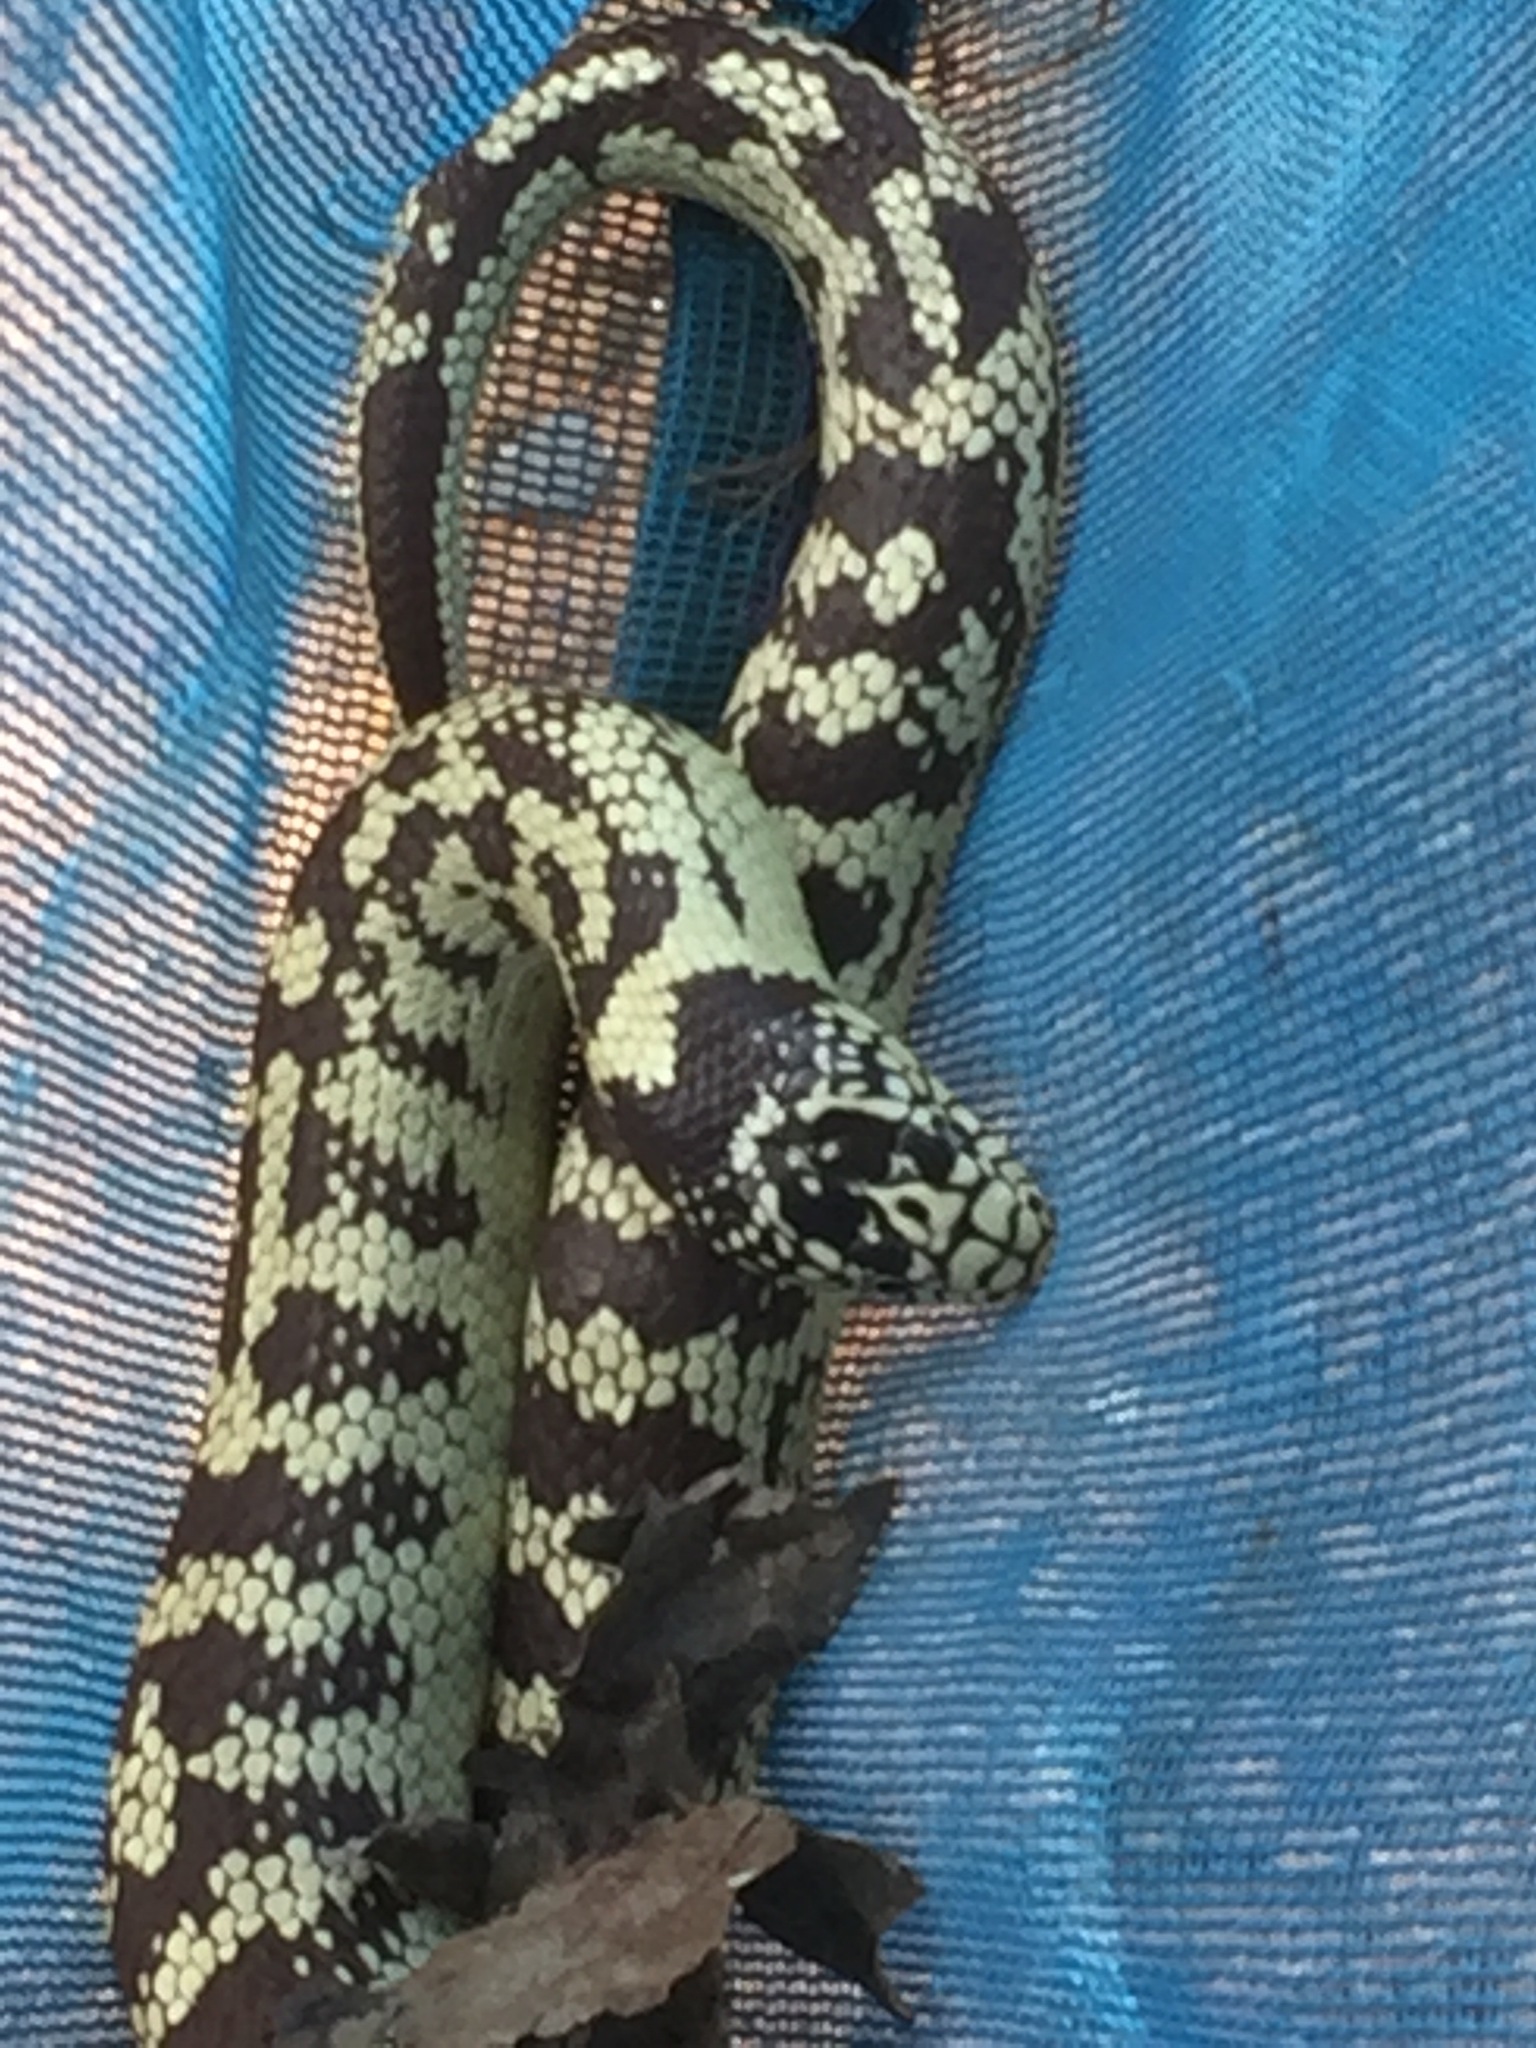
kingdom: Animalia
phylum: Chordata
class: Squamata
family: Colubridae
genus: Lampropeltis
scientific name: Lampropeltis californiae
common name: California kingsnake
